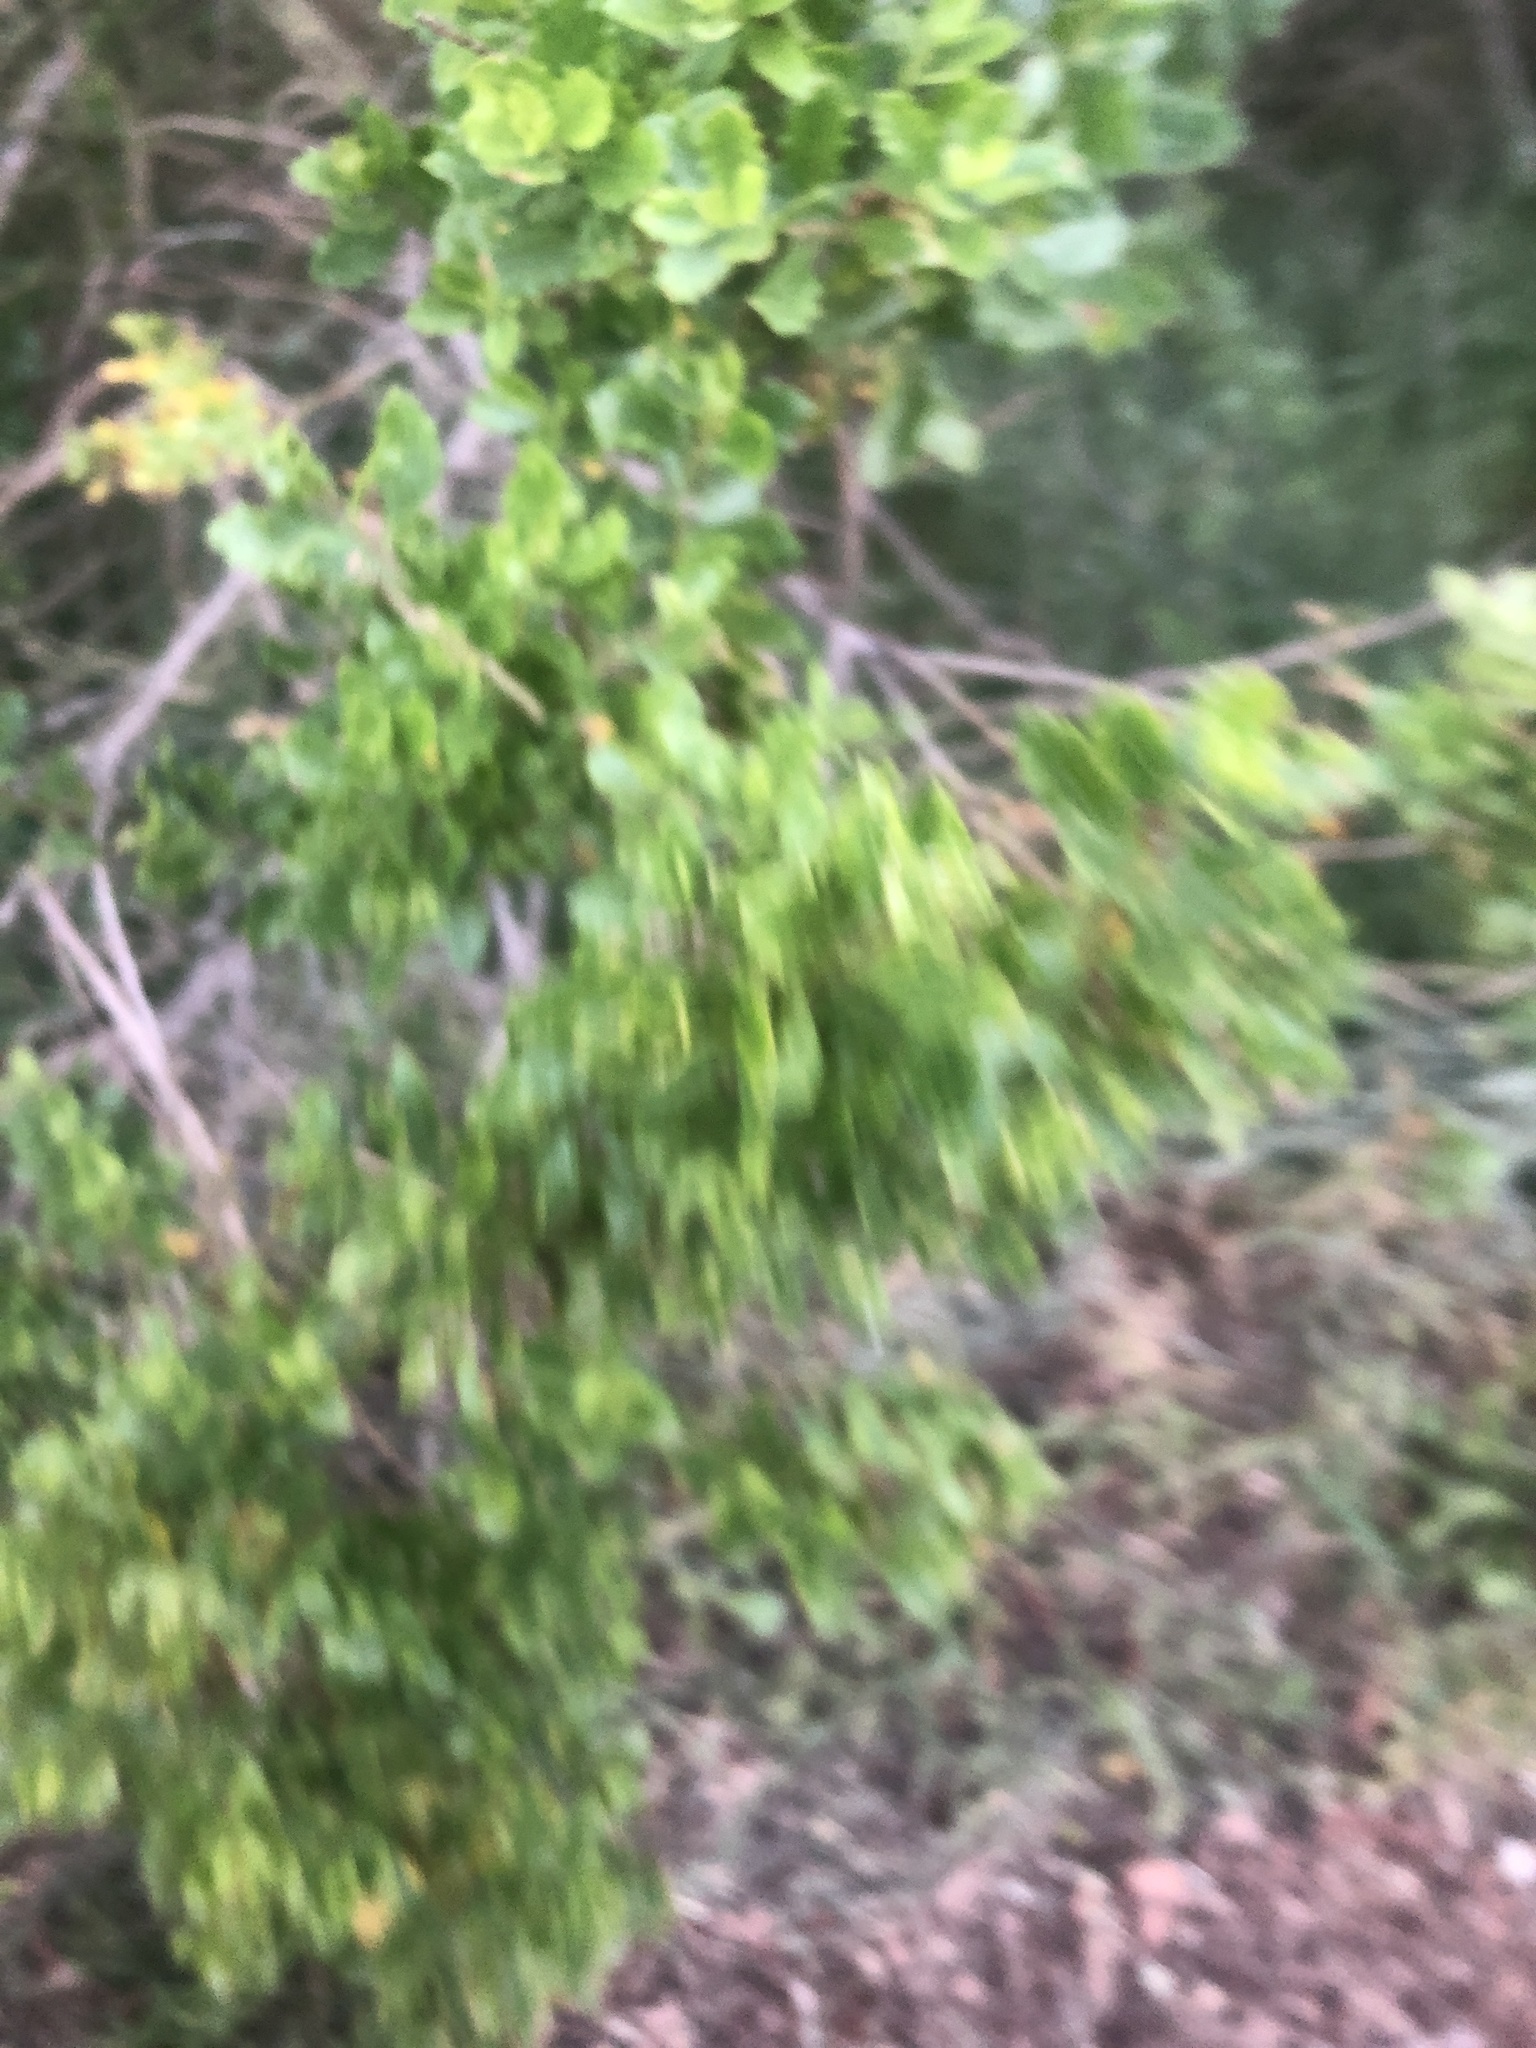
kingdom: Plantae
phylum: Tracheophyta
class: Magnoliopsida
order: Asterales
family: Asteraceae
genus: Baccharis
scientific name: Baccharis pilularis
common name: Coyotebrush
